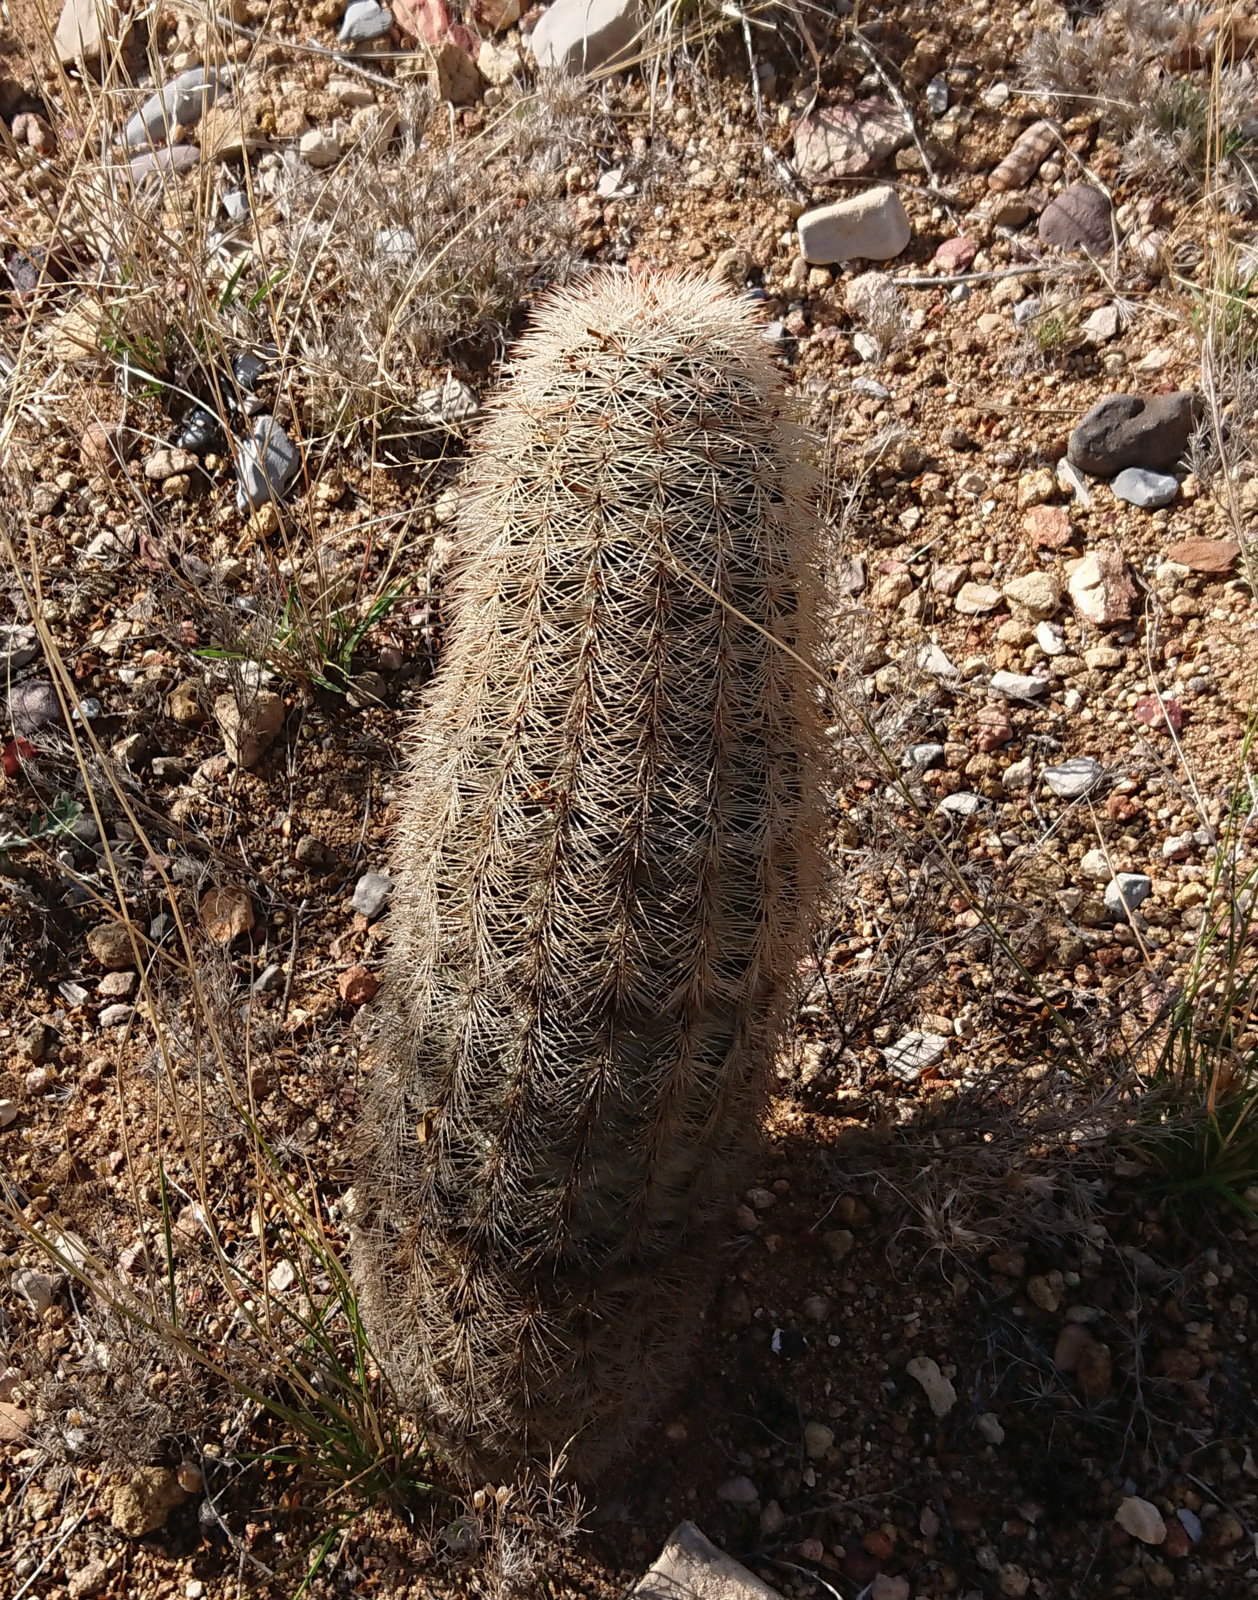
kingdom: Plantae
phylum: Tracheophyta
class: Magnoliopsida
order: Caryophyllales
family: Cactaceae
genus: Echinocereus
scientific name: Echinocereus dasyacanthus
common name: Spiny hedgehog cactus
